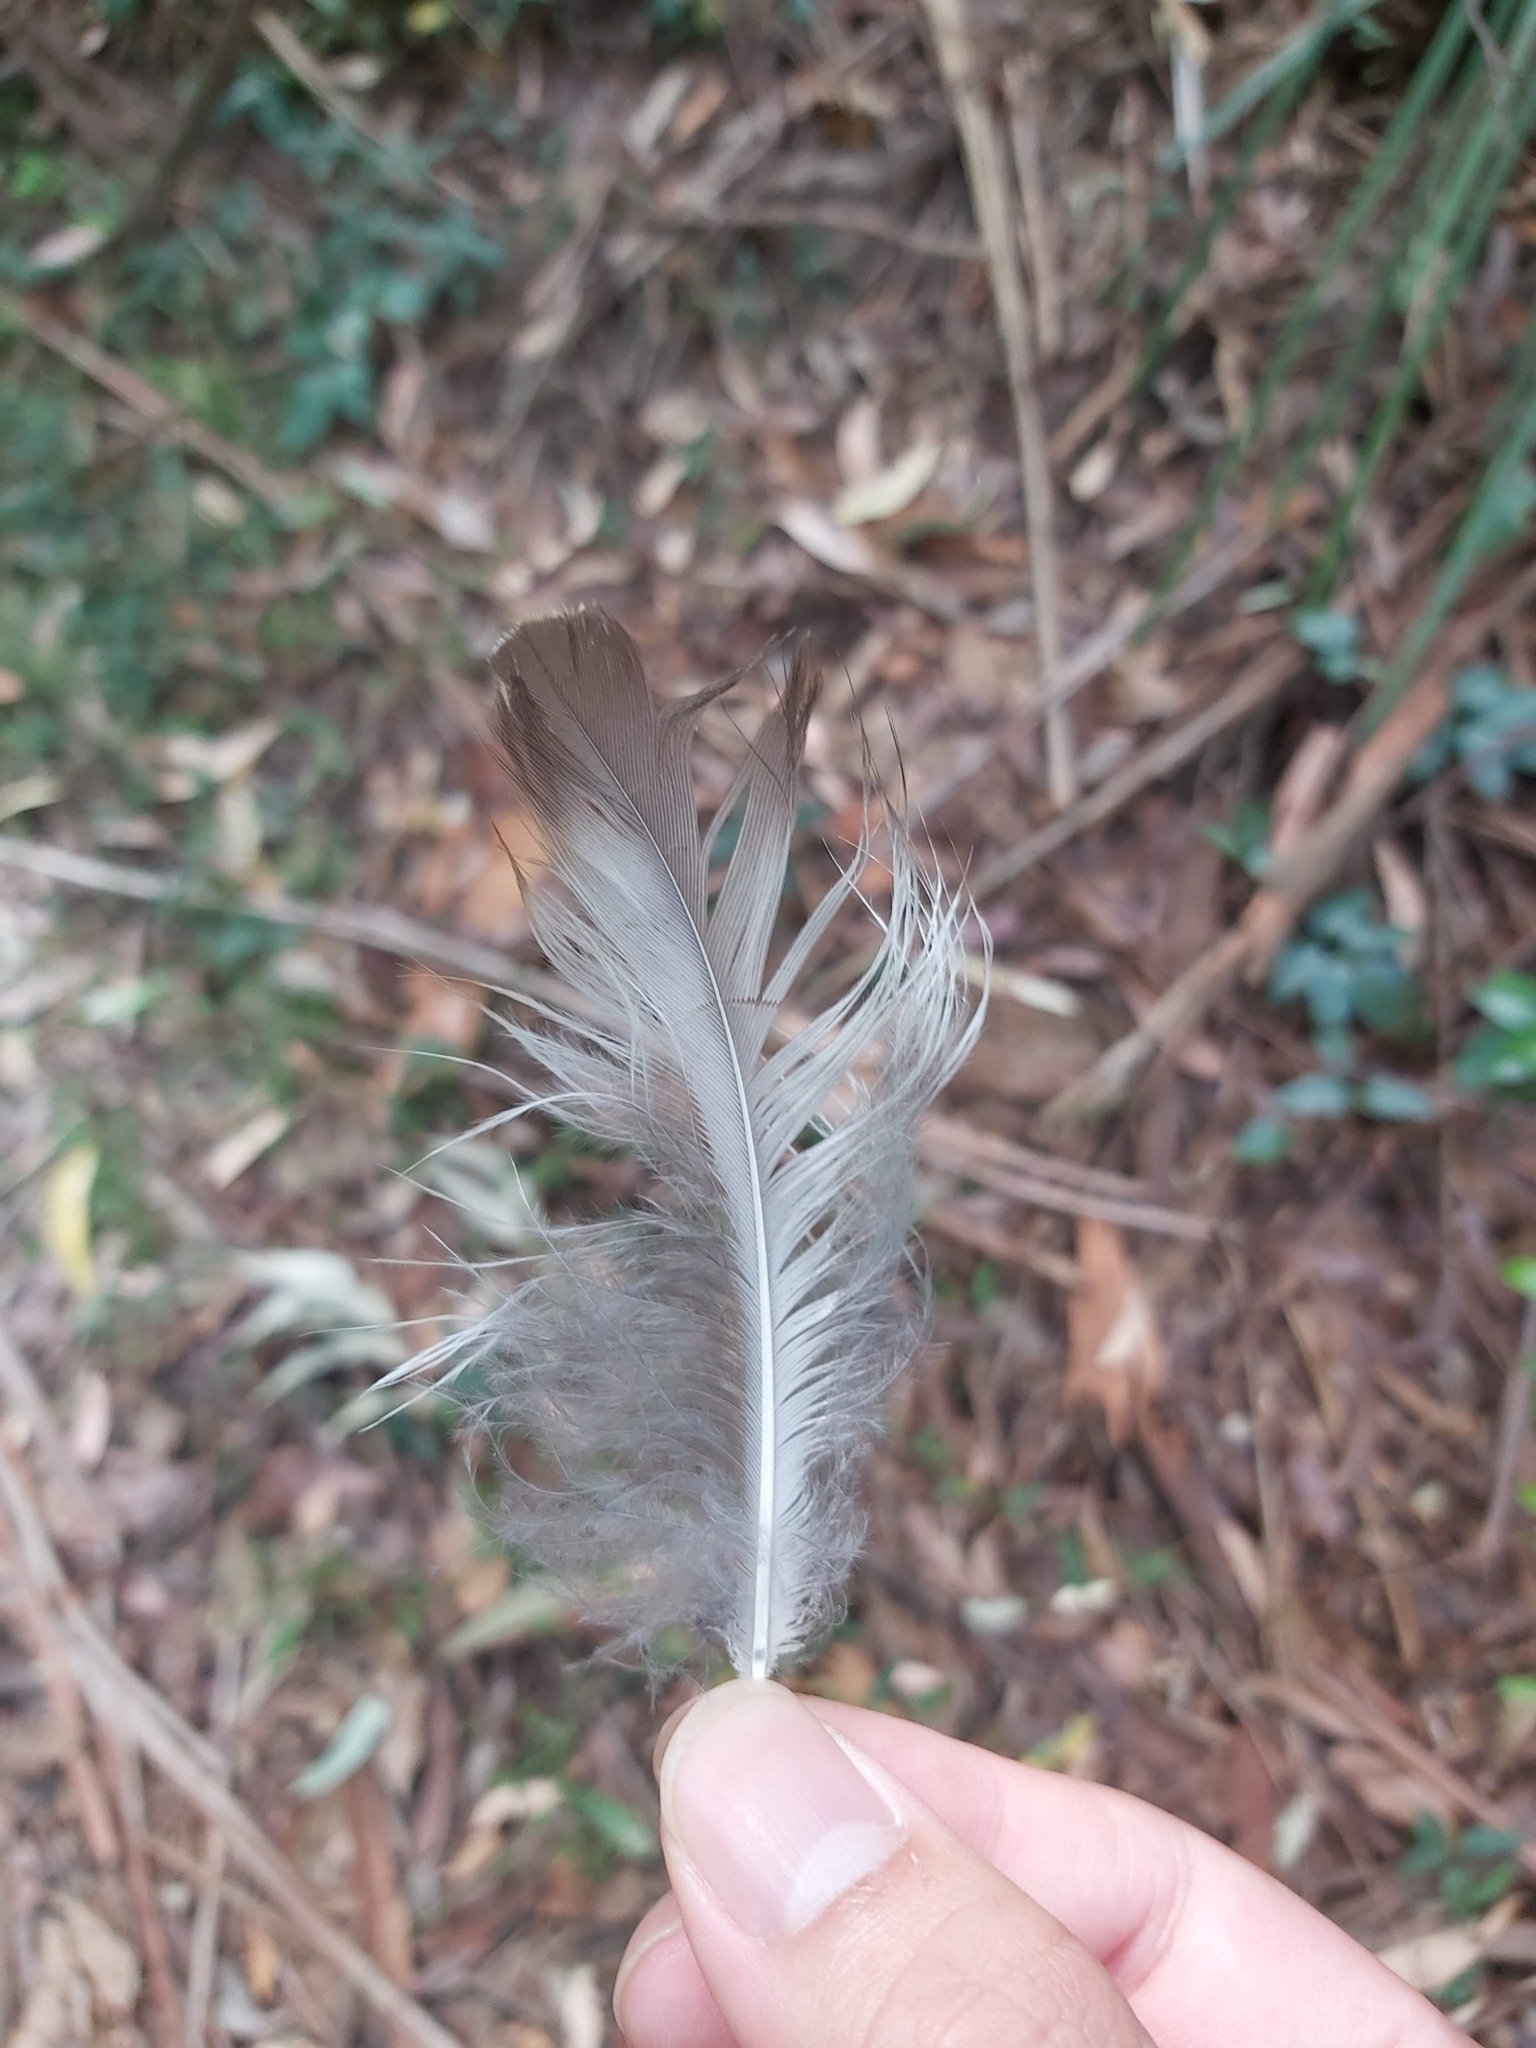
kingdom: Animalia
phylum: Chordata
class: Aves
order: Coraciiformes
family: Alcedinidae
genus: Dacelo
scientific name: Dacelo novaeguineae
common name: Laughing kookaburra
